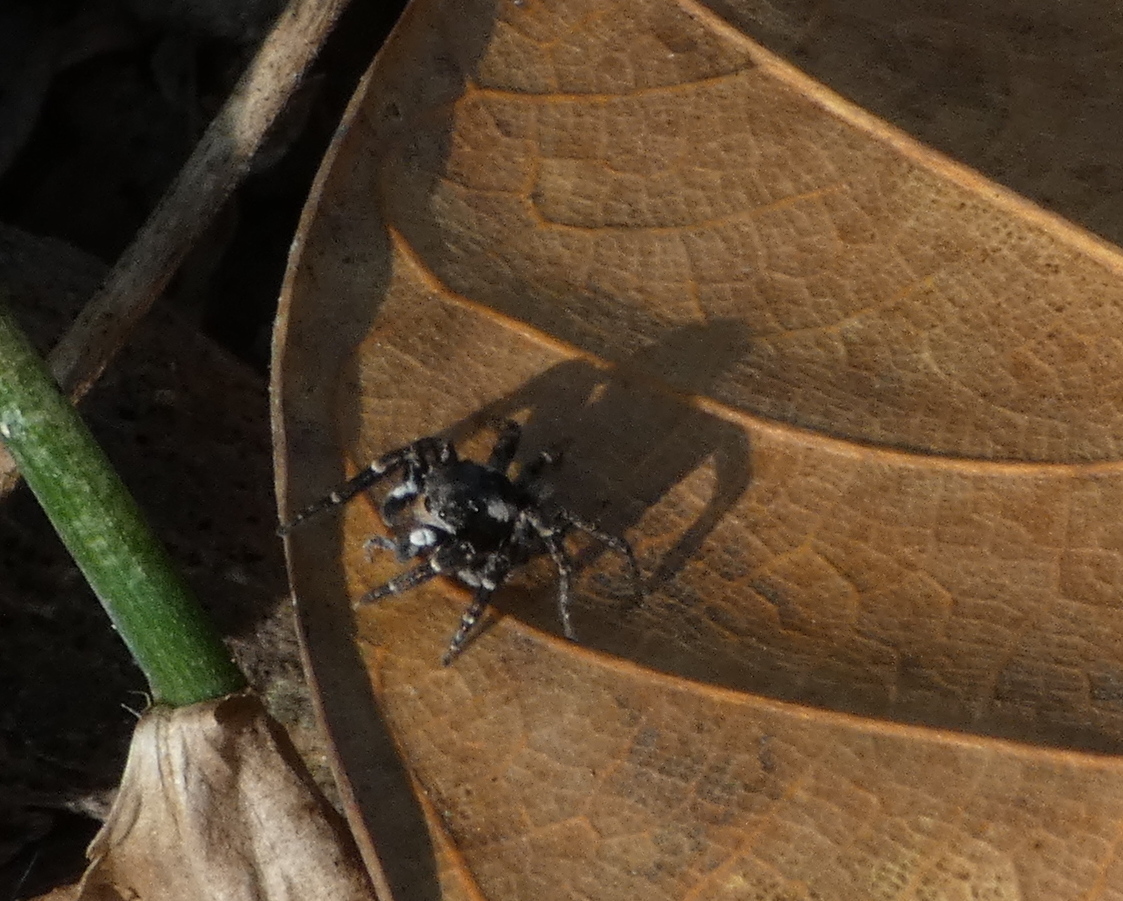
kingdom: Animalia
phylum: Arthropoda
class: Arachnida
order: Araneae
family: Salticidae
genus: Sumampattus
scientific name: Sumampattus quinqueradiatus
